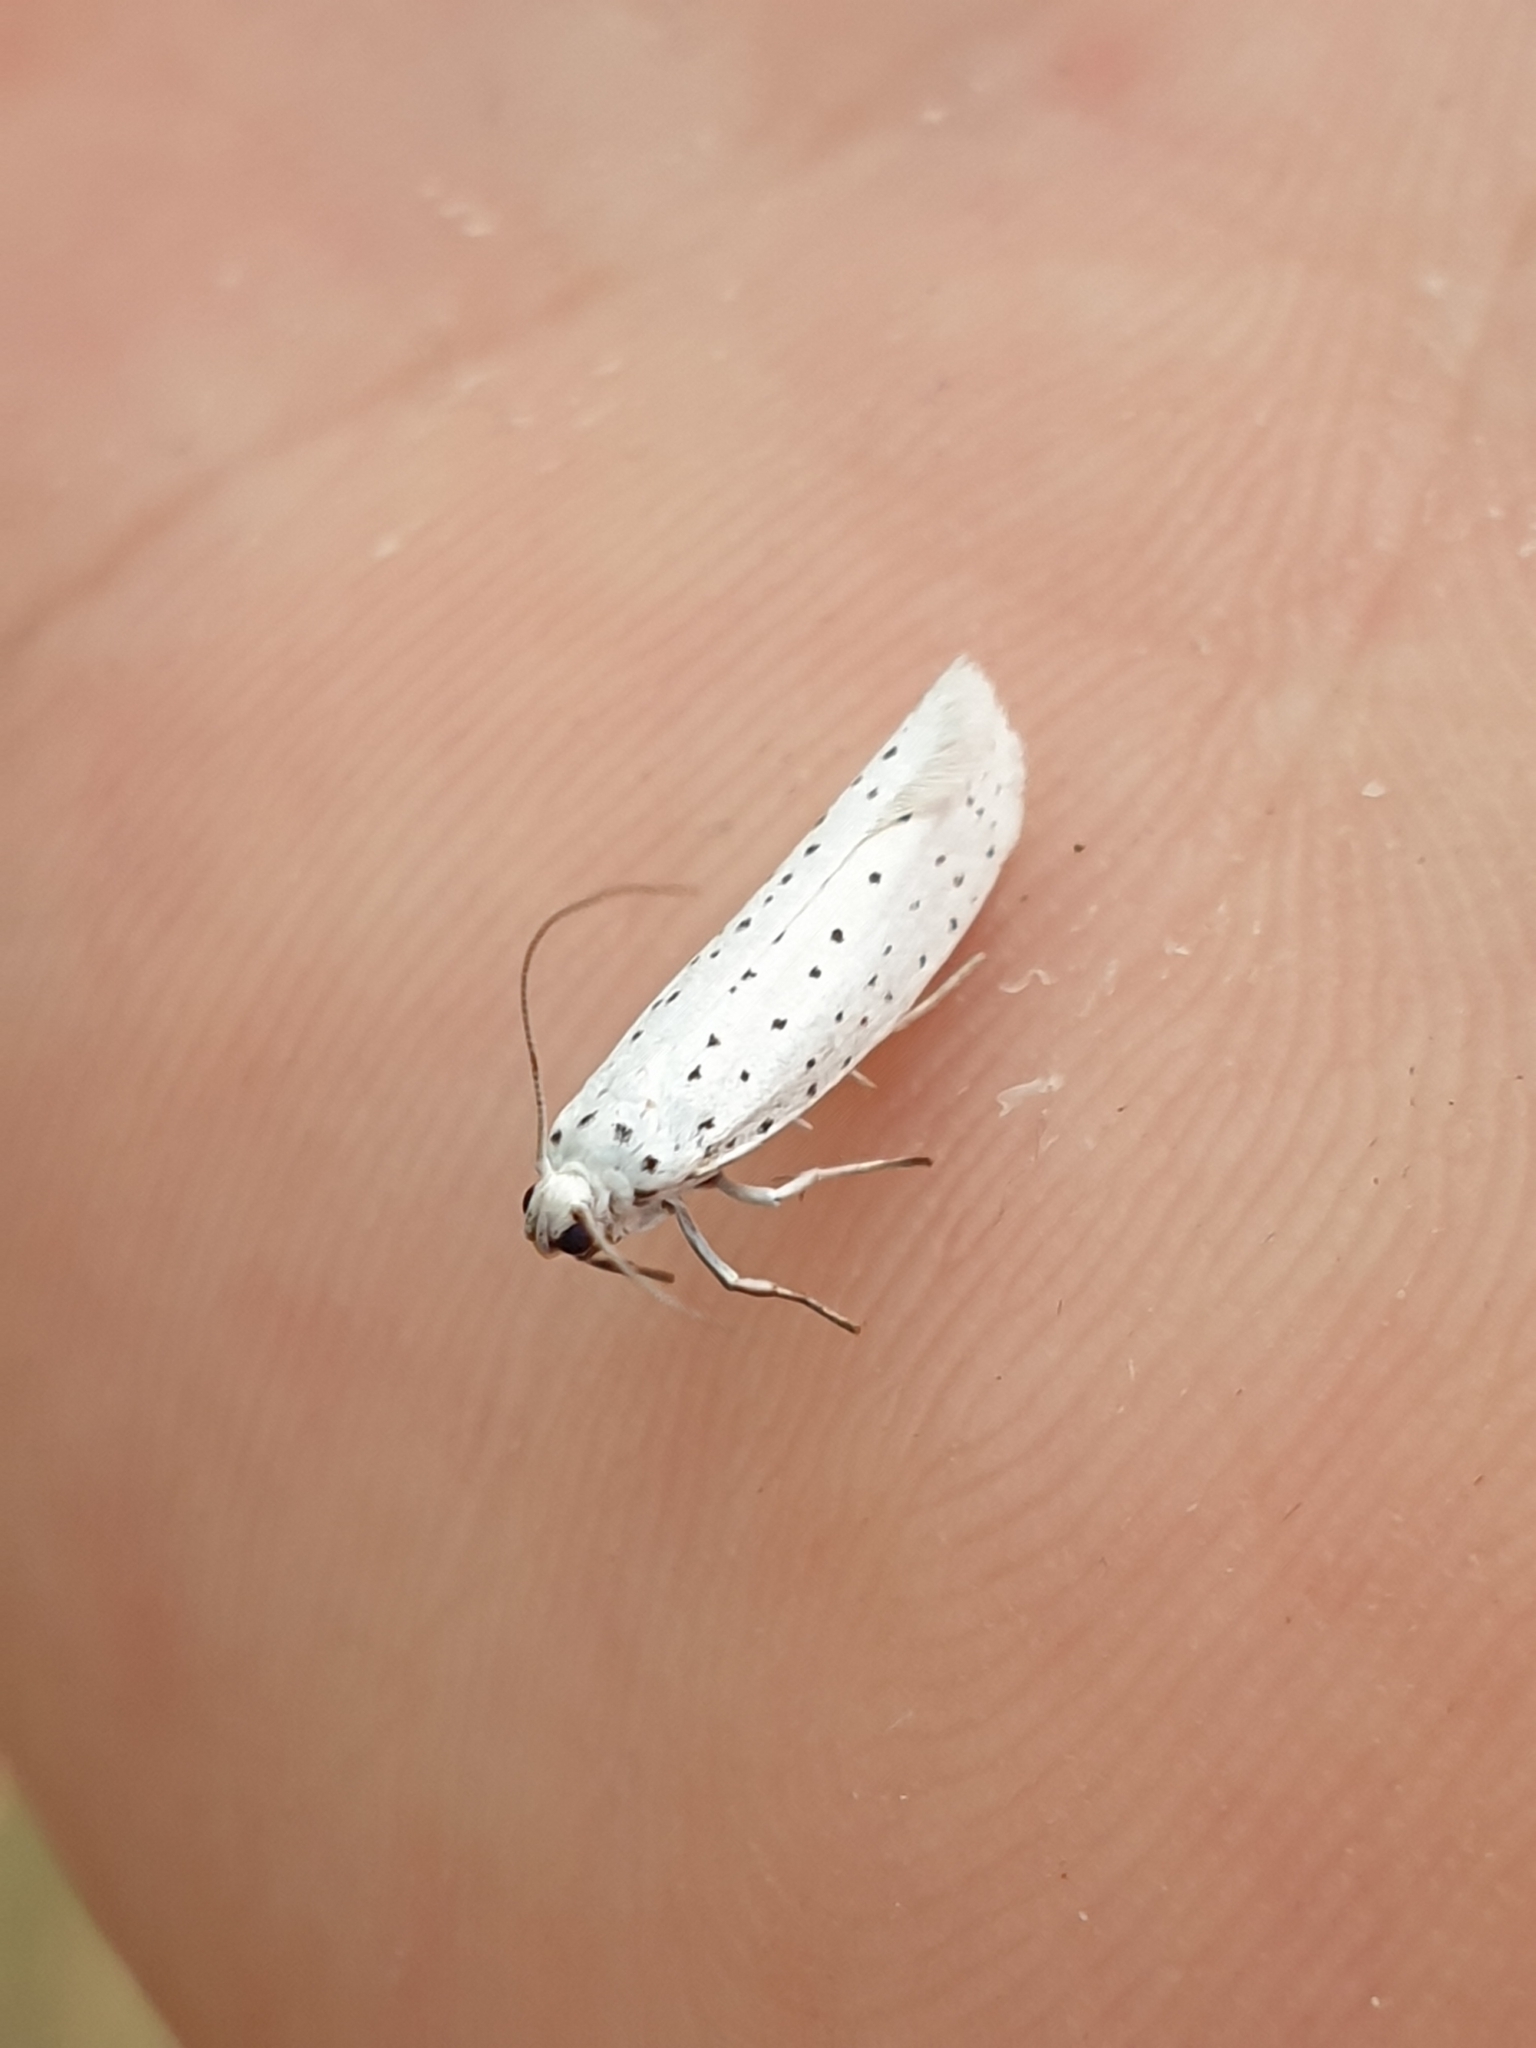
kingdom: Animalia
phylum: Arthropoda
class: Insecta
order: Lepidoptera
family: Yponomeutidae
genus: Yponomeuta
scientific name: Yponomeuta evonymella
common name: Bird-cherry ermine
